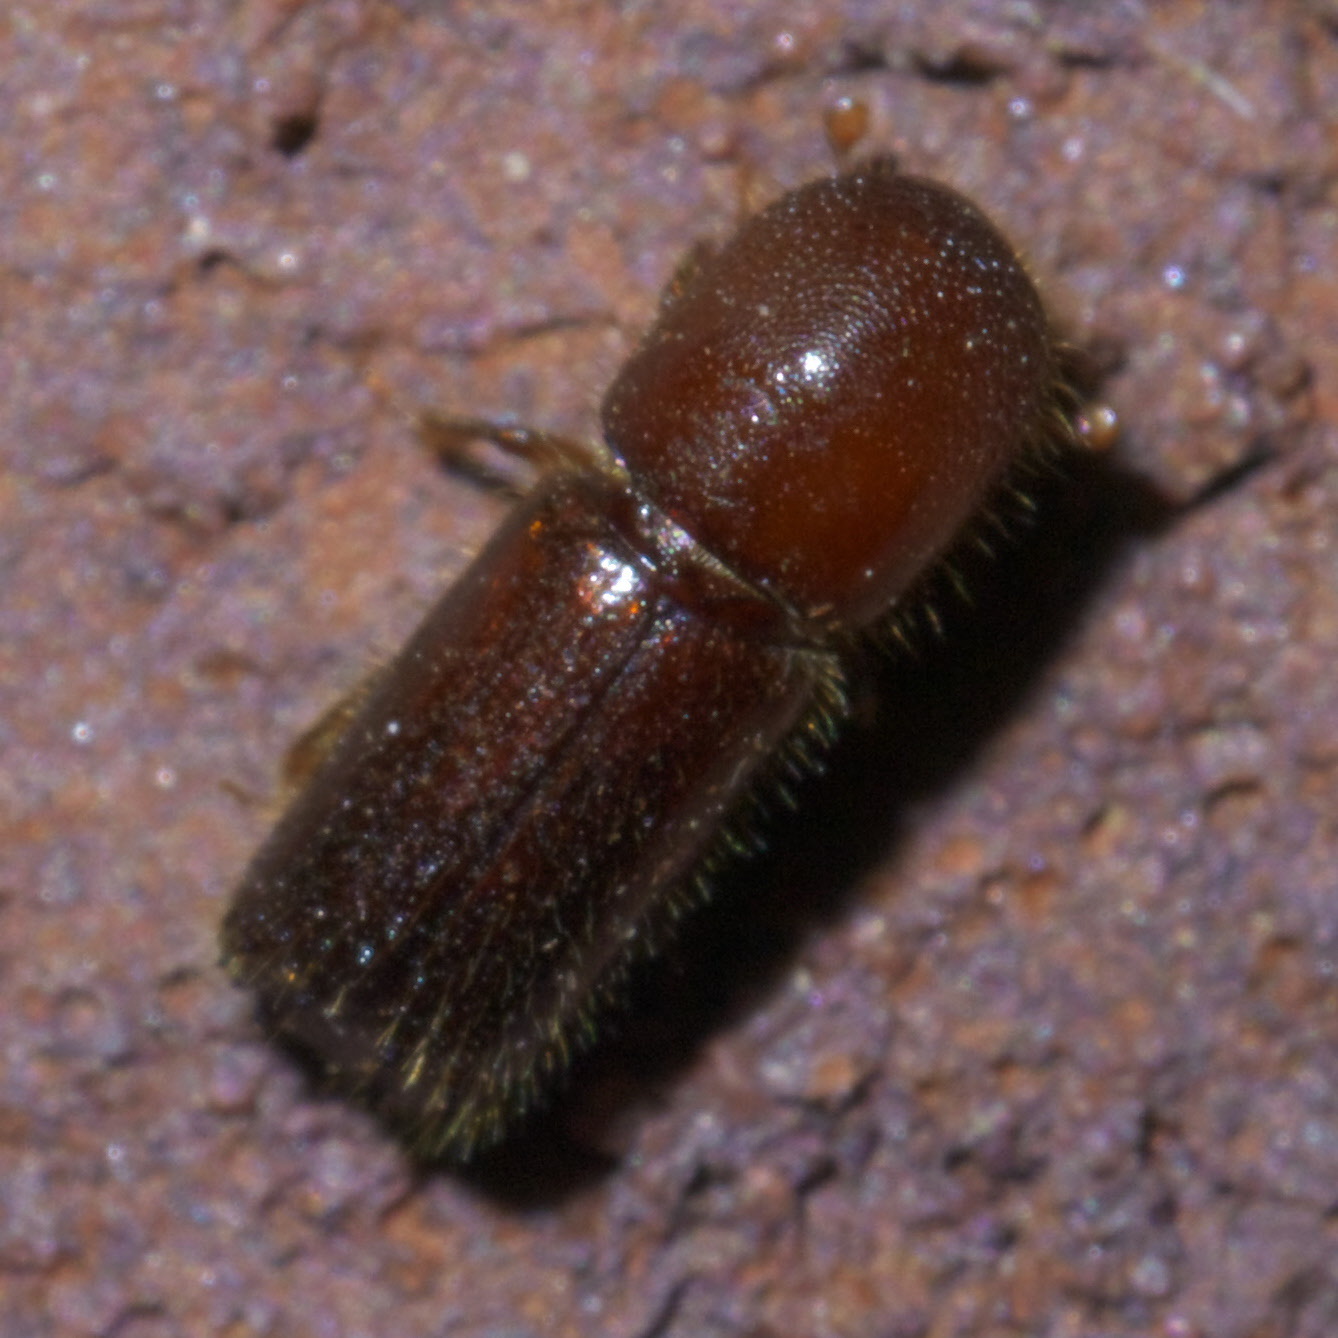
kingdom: Animalia
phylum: Arthropoda
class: Insecta
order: Coleoptera
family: Curculionidae
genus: Xyleborus
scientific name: Xyleborus celsus
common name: Weevil
